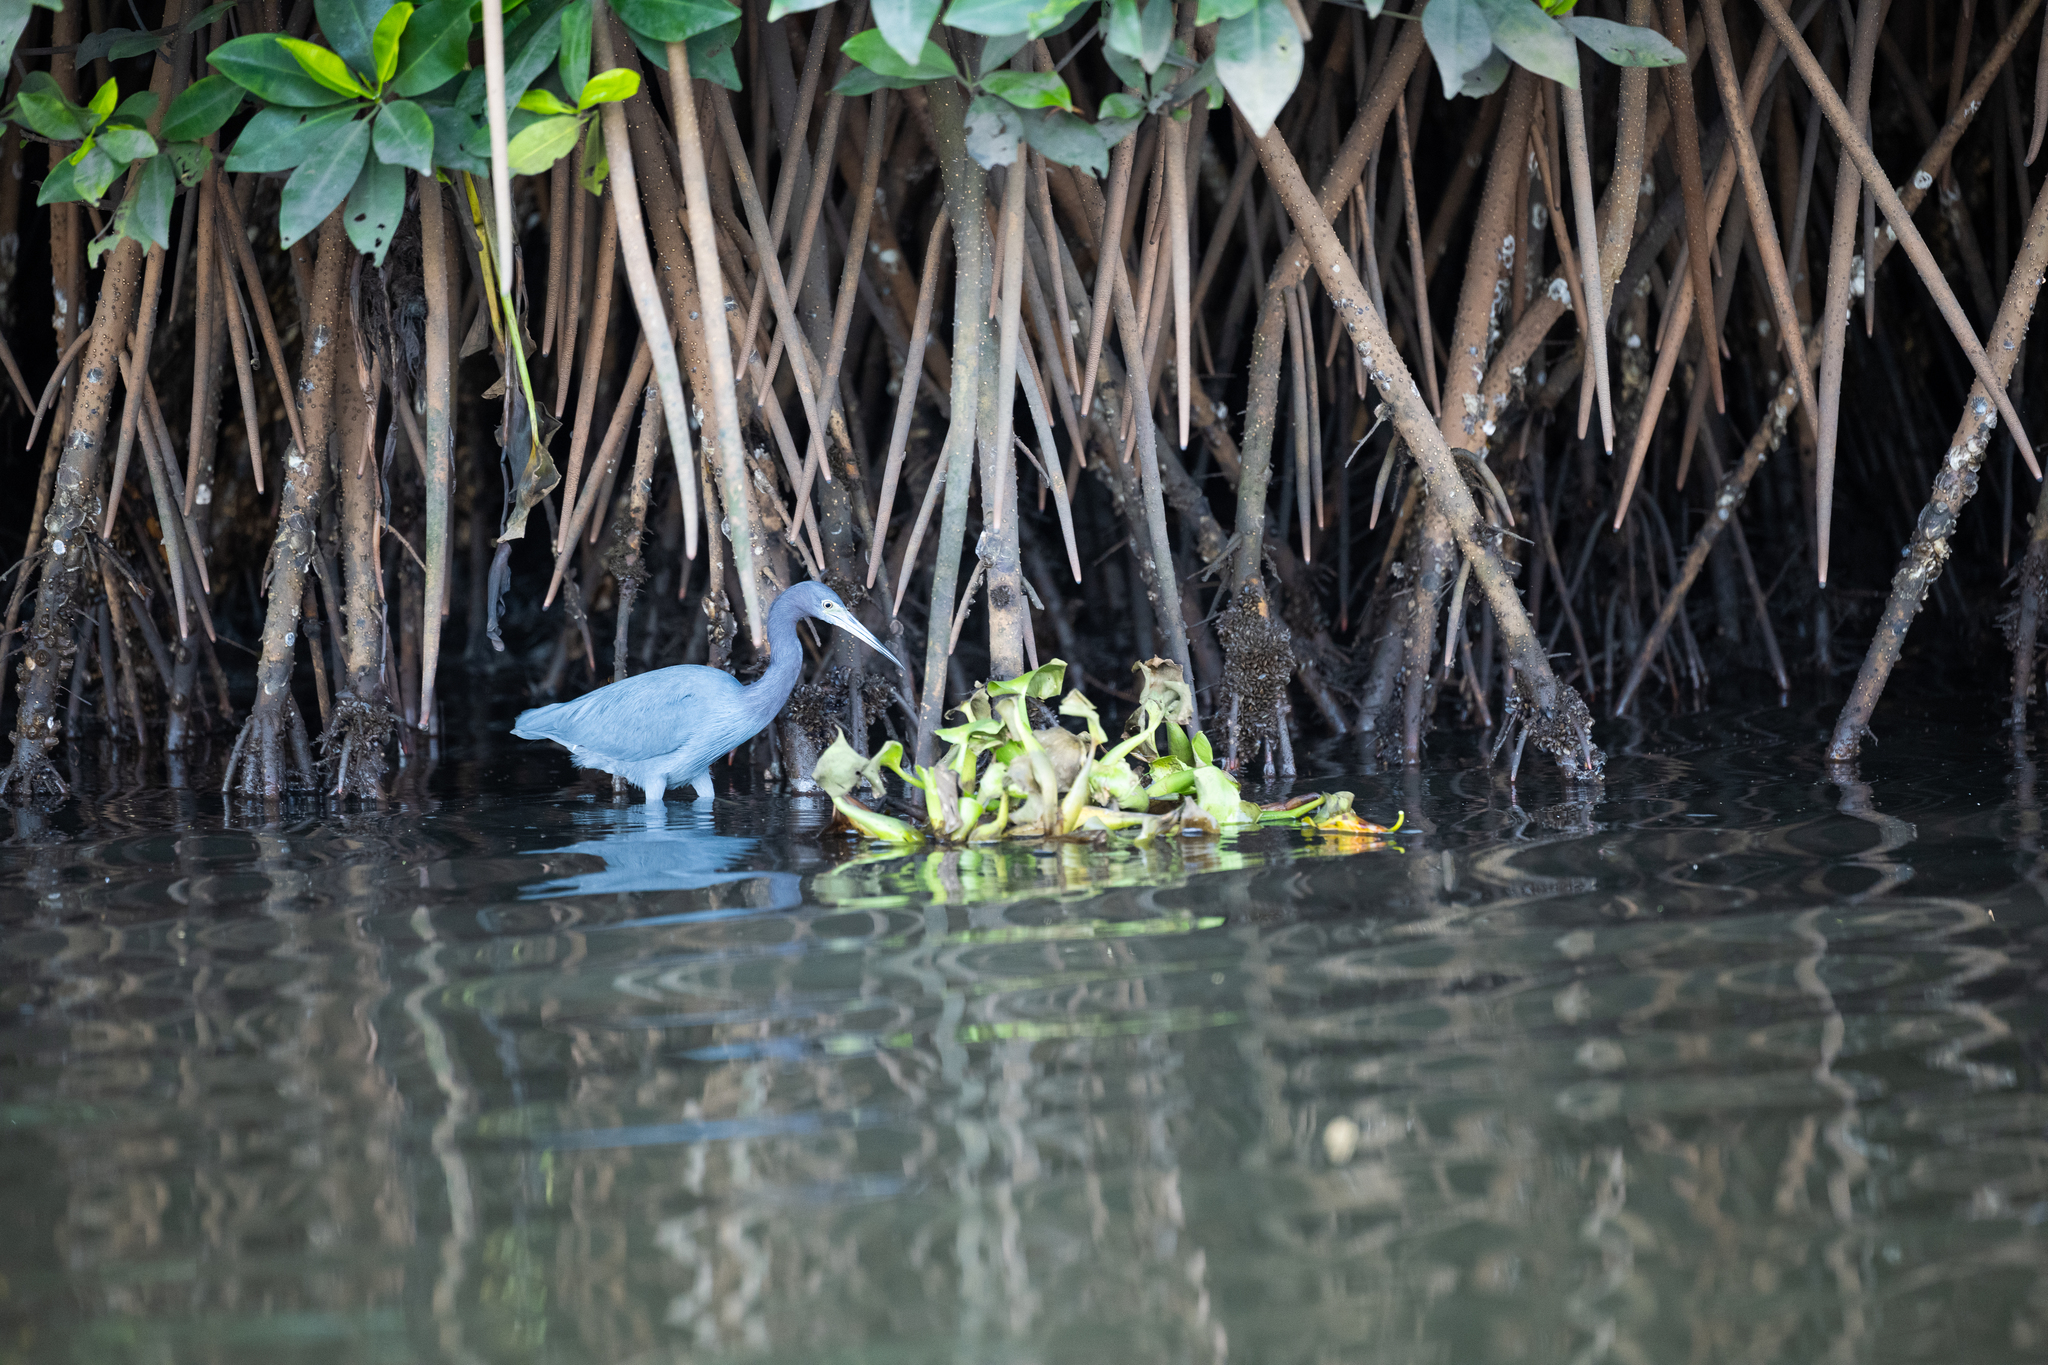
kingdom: Animalia
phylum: Chordata
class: Aves
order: Pelecaniformes
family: Ardeidae
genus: Egretta
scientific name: Egretta caerulea
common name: Little blue heron
